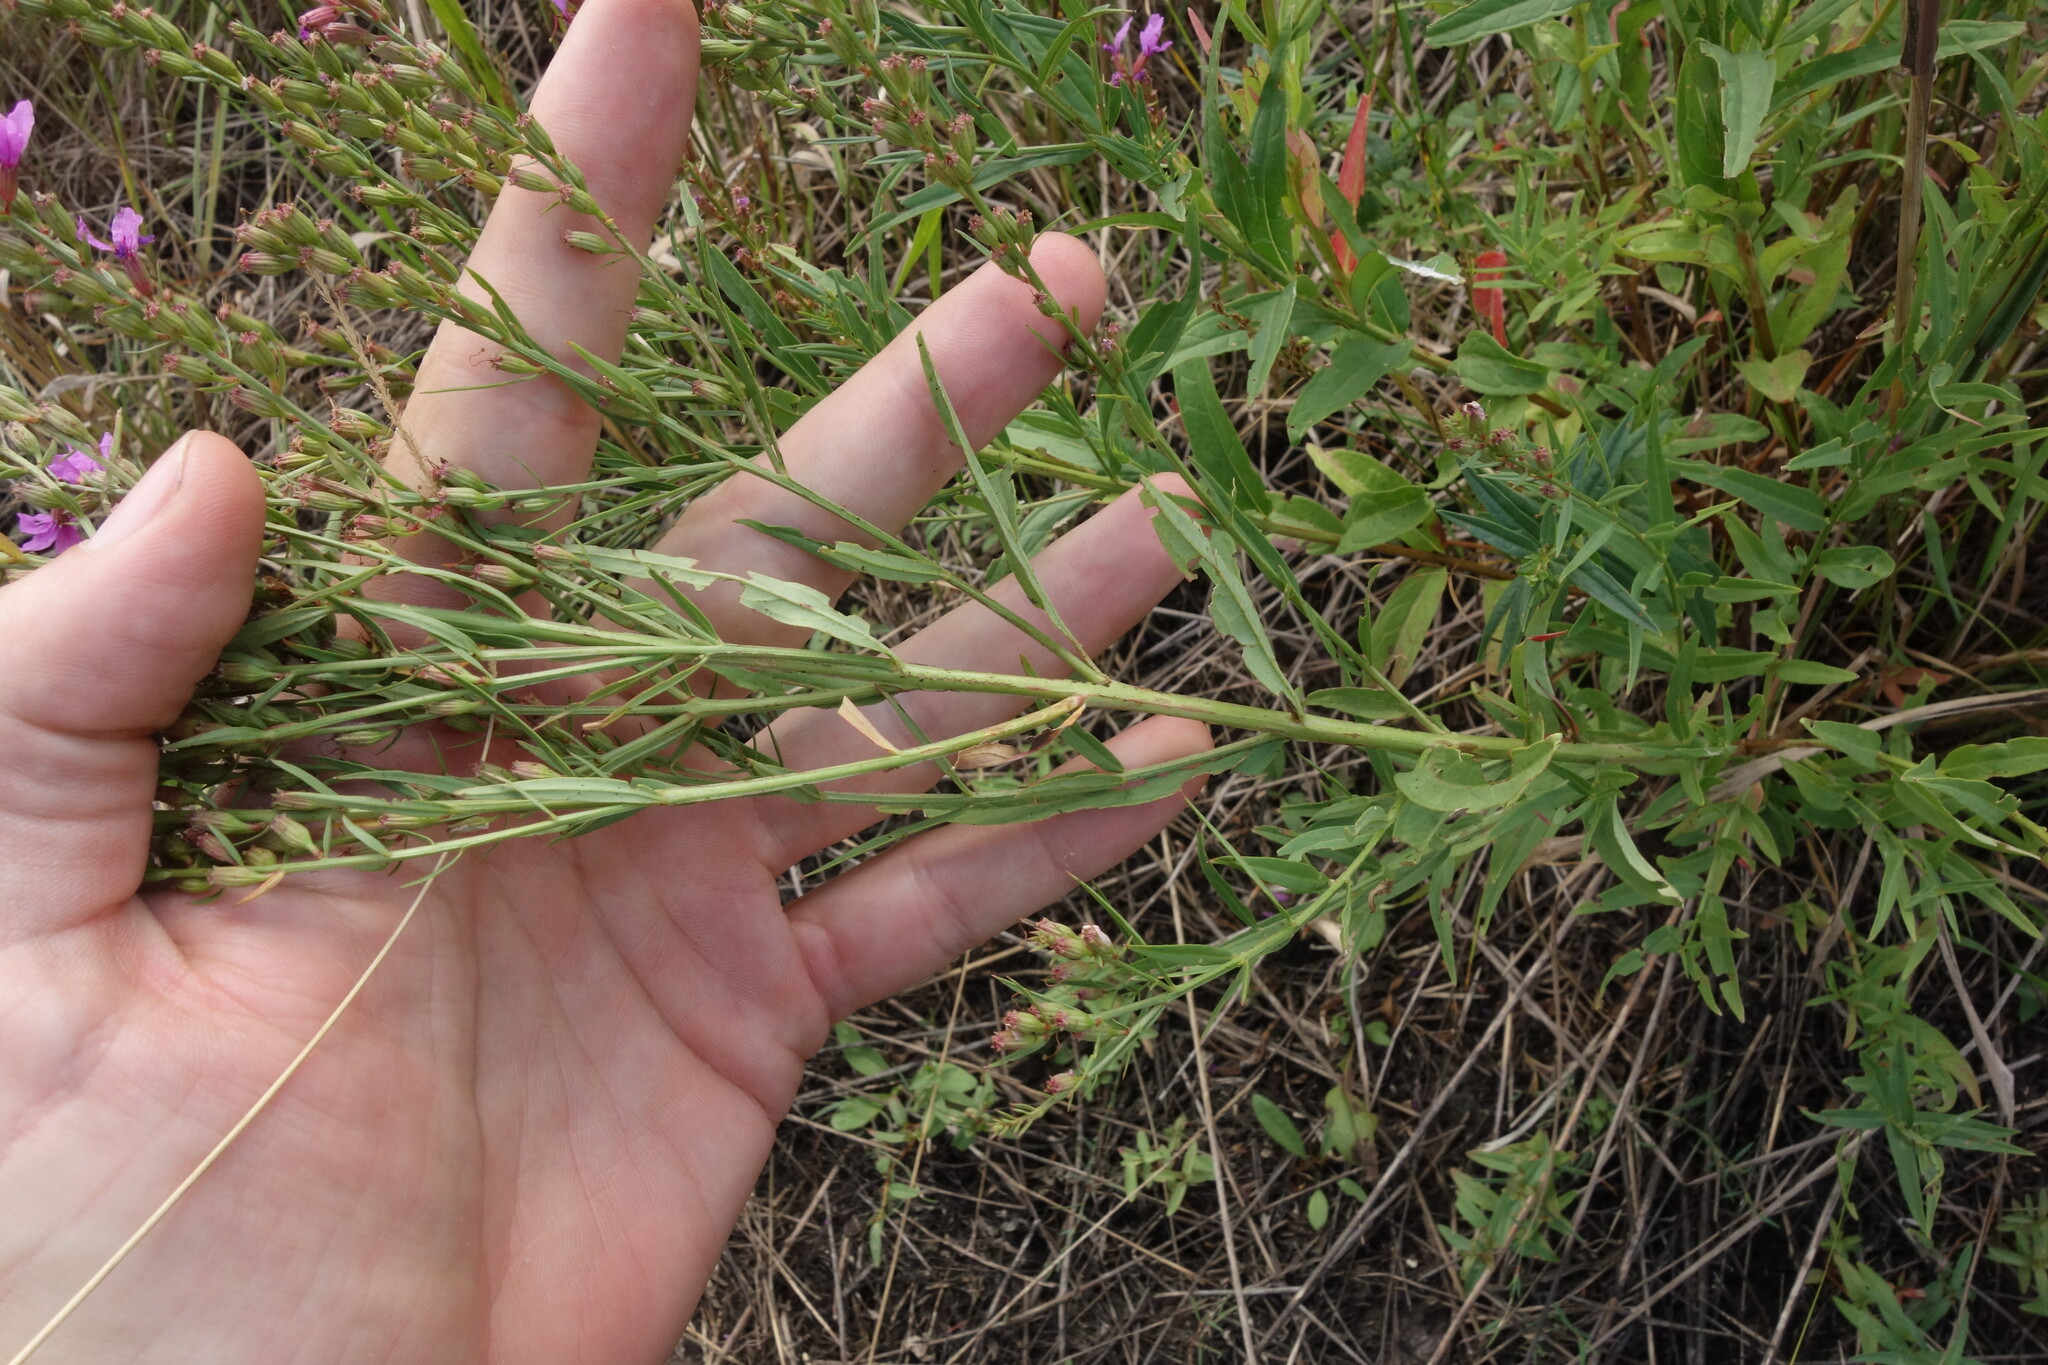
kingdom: Plantae
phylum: Tracheophyta
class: Magnoliopsida
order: Myrtales
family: Lythraceae
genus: Lythrum
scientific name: Lythrum virgatum
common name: European wand loosestrife
